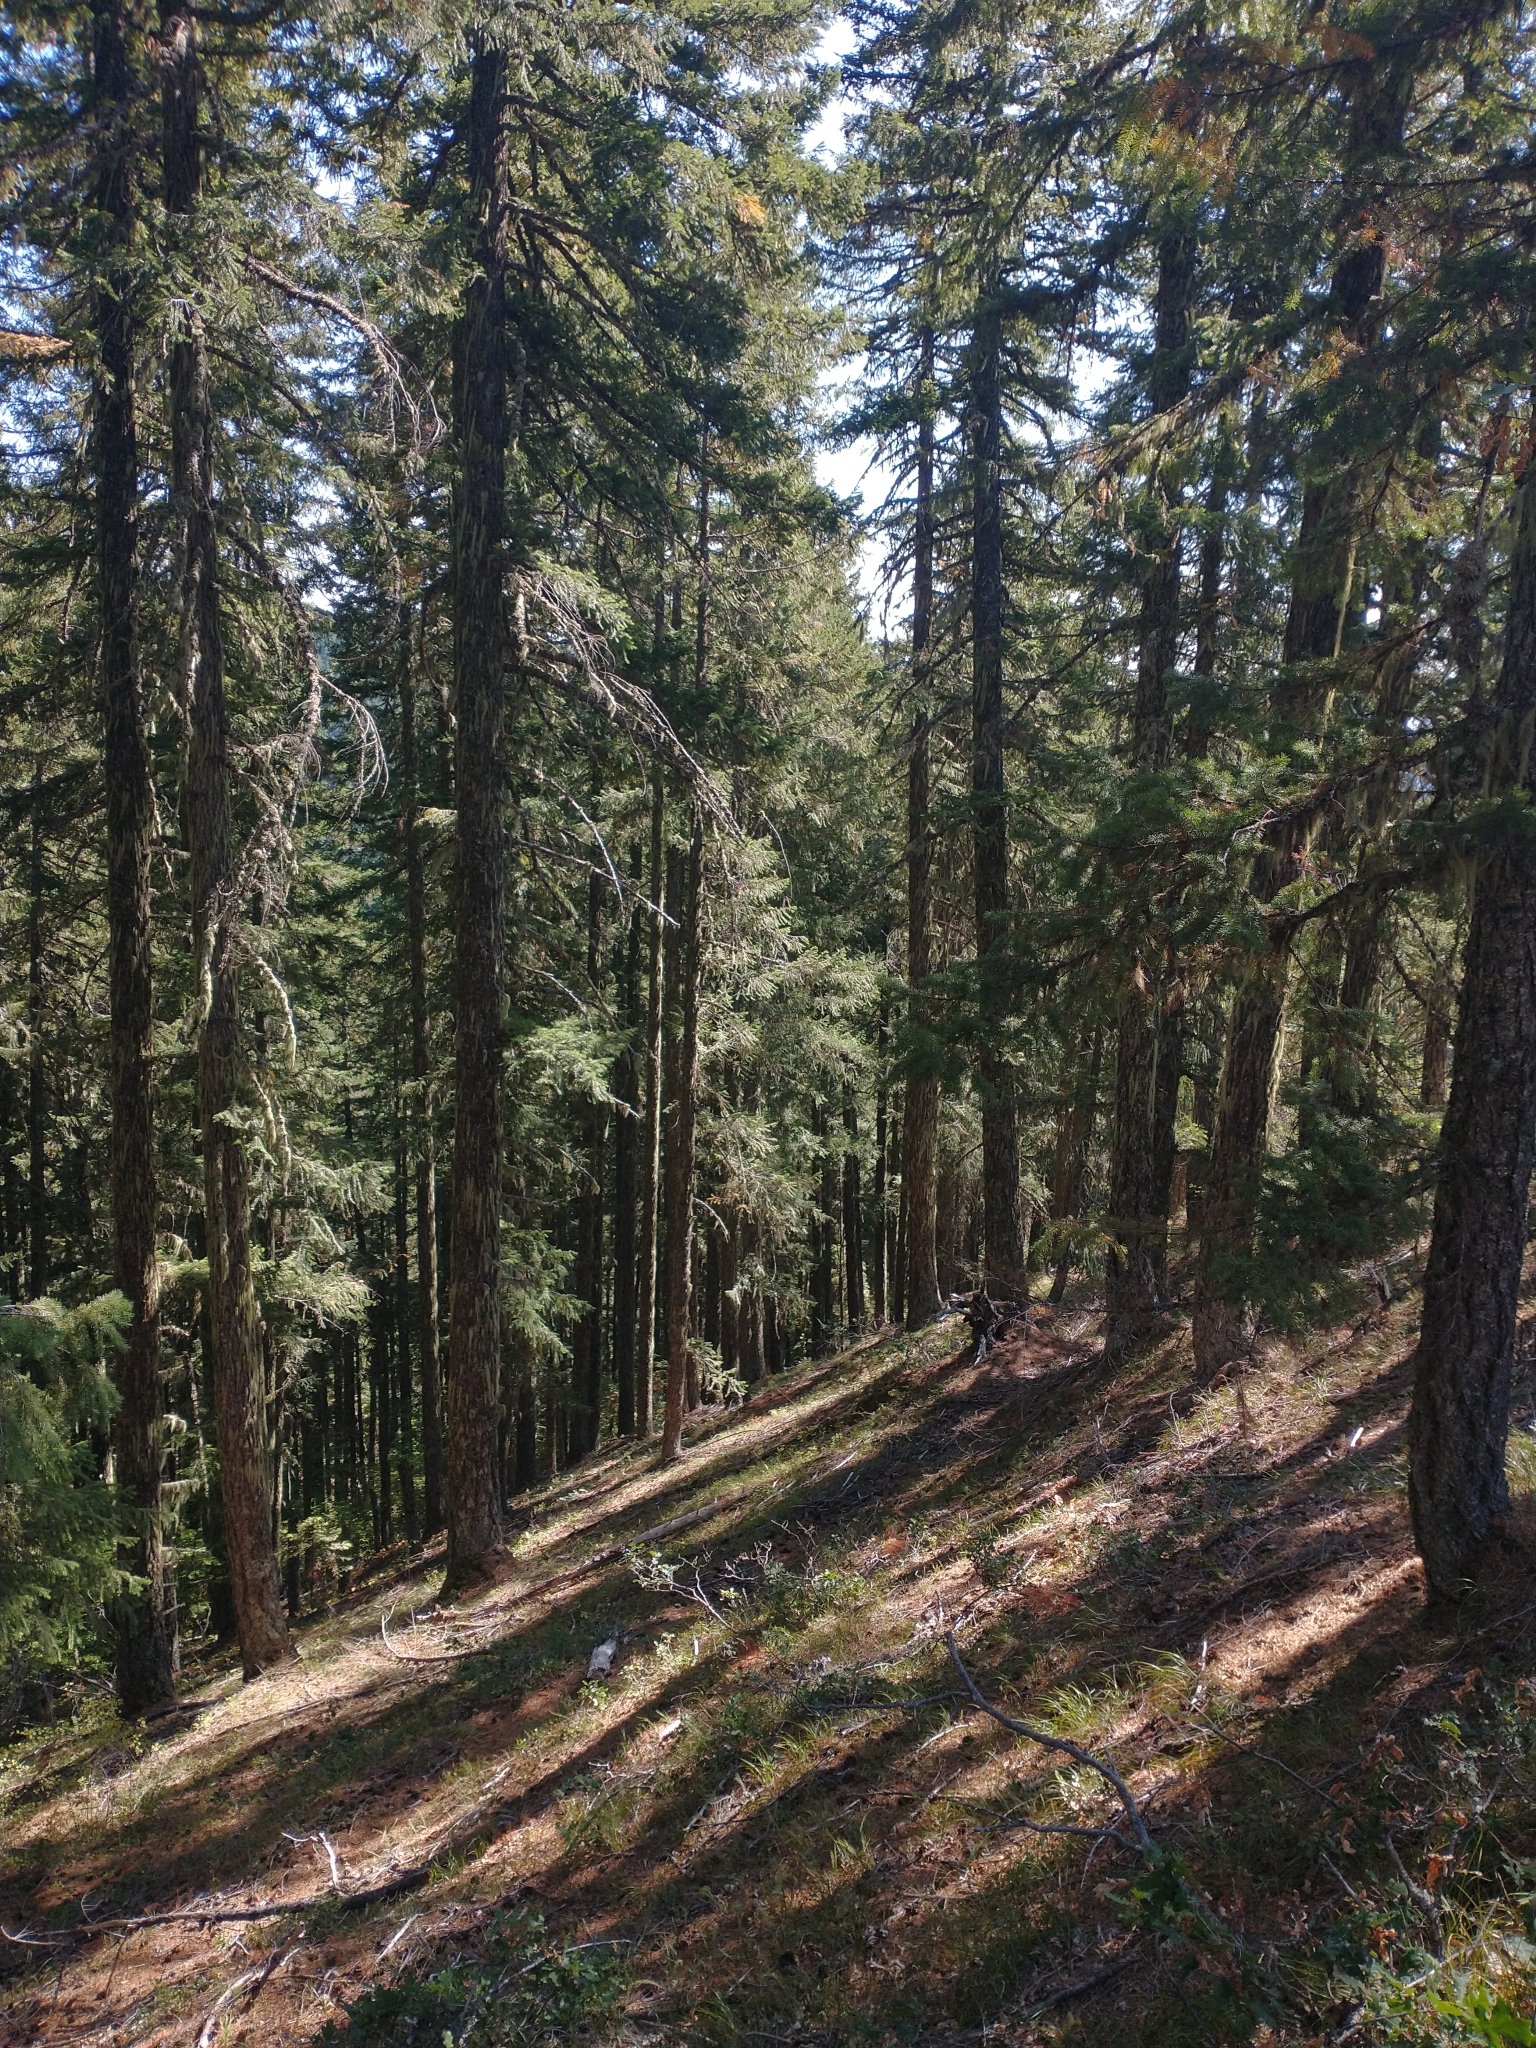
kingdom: Plantae
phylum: Tracheophyta
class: Pinopsida
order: Pinales
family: Pinaceae
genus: Pseudotsuga
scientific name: Pseudotsuga menziesii
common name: Douglas fir
